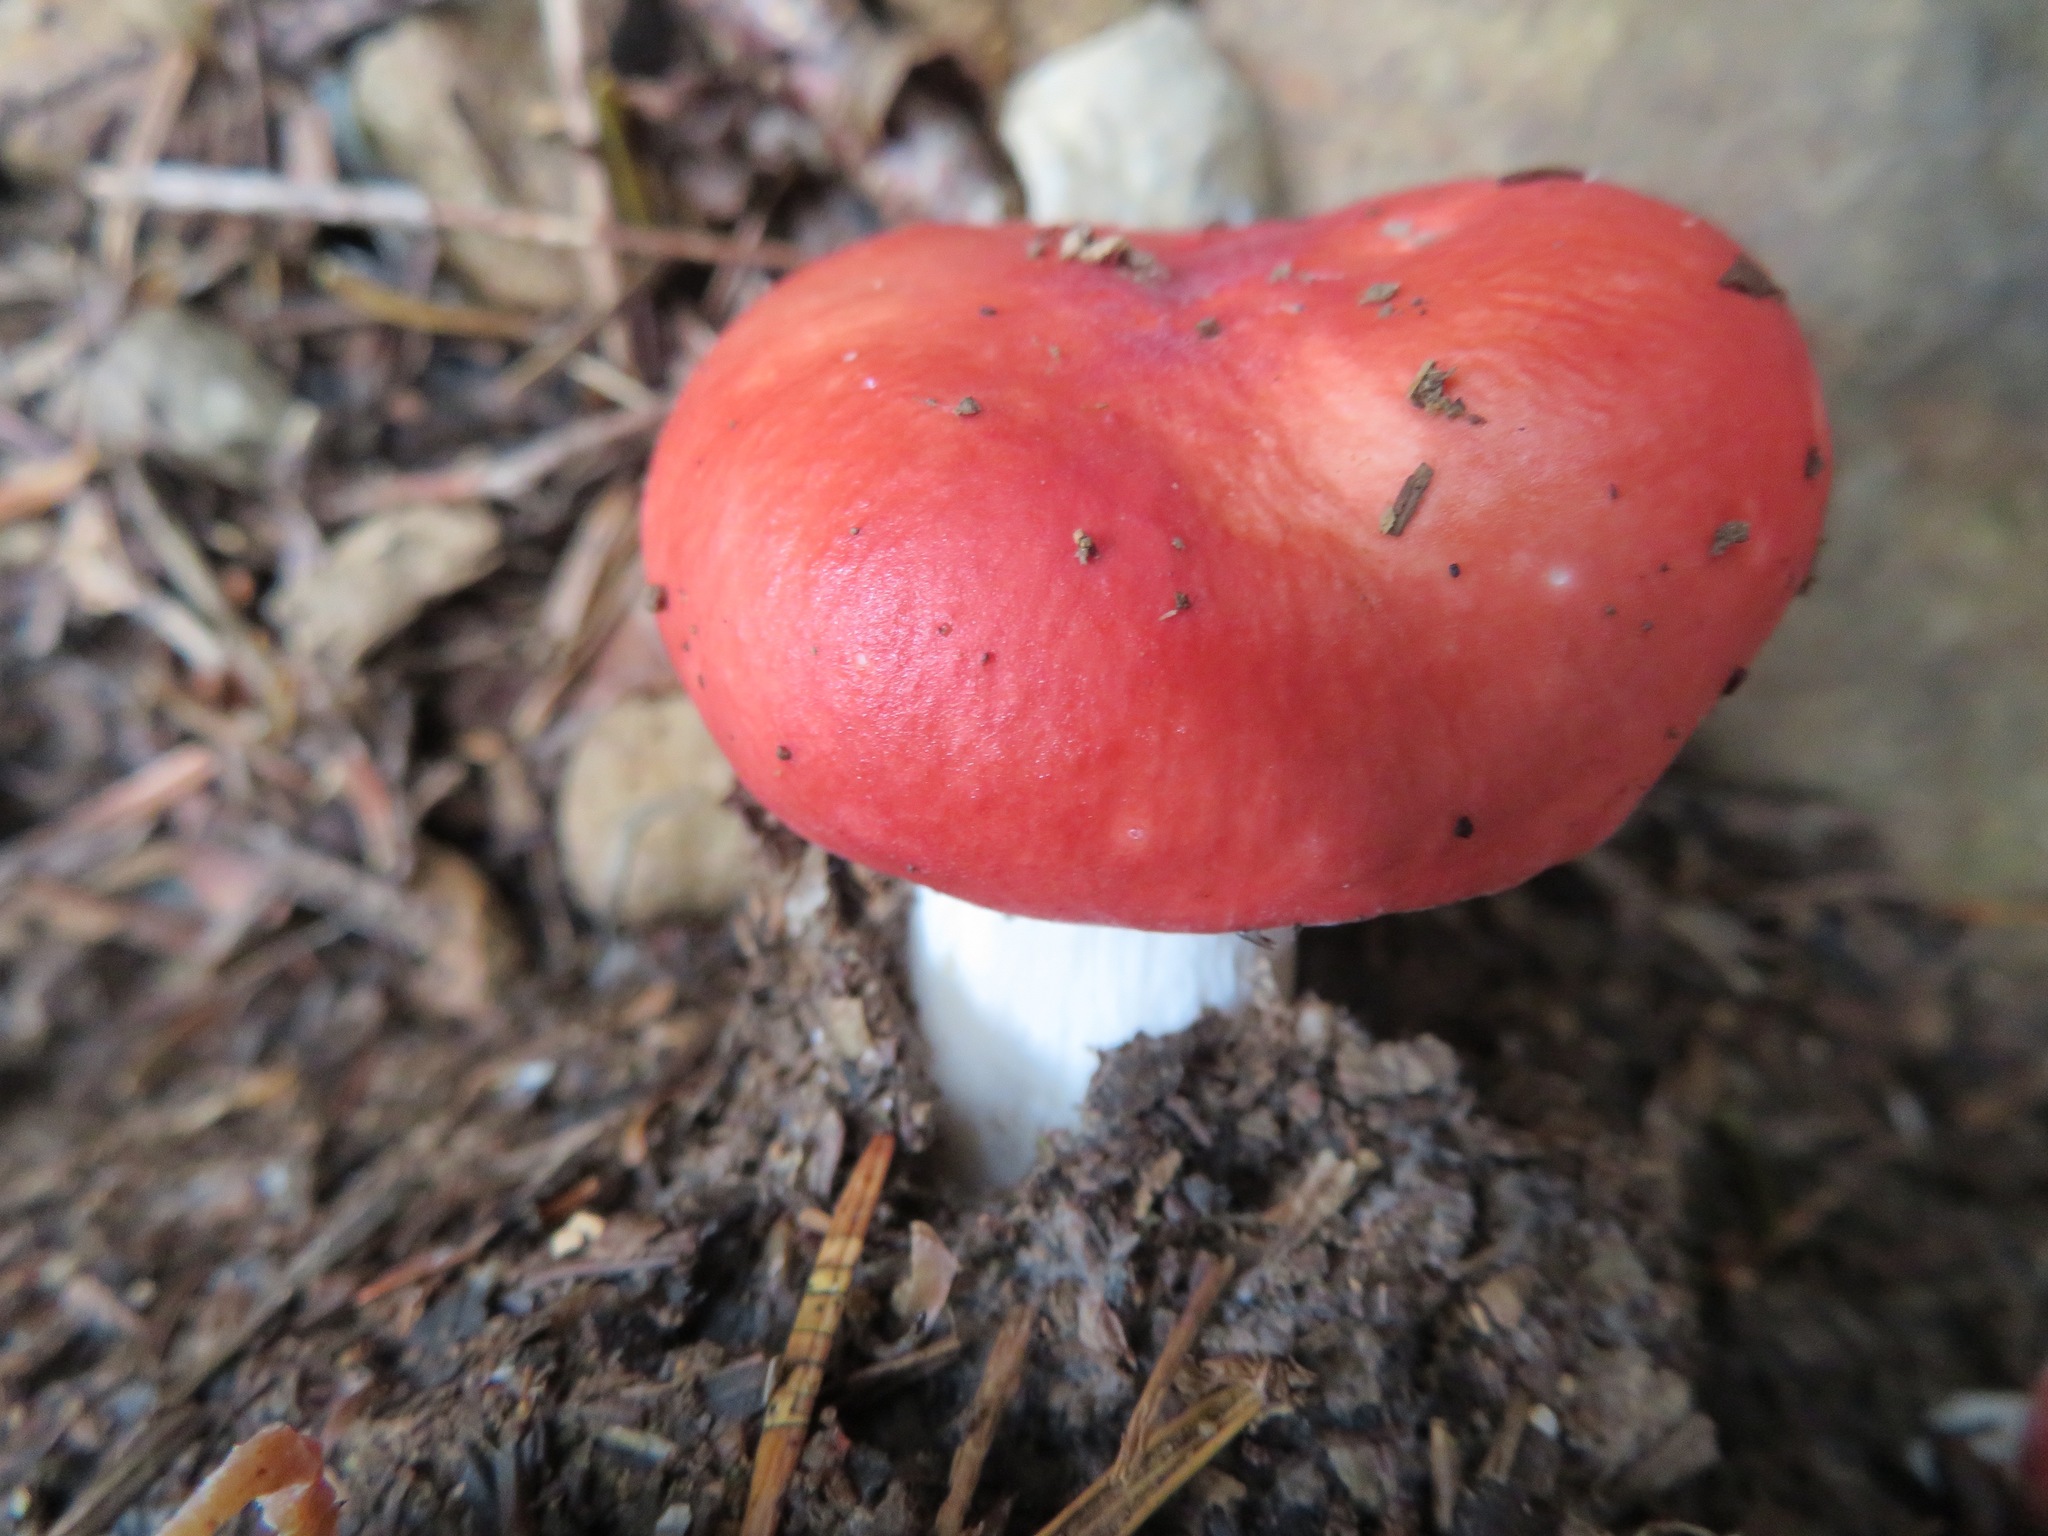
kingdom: Fungi
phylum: Basidiomycota
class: Agaricomycetes
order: Russulales
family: Russulaceae
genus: Russula
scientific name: Russula
